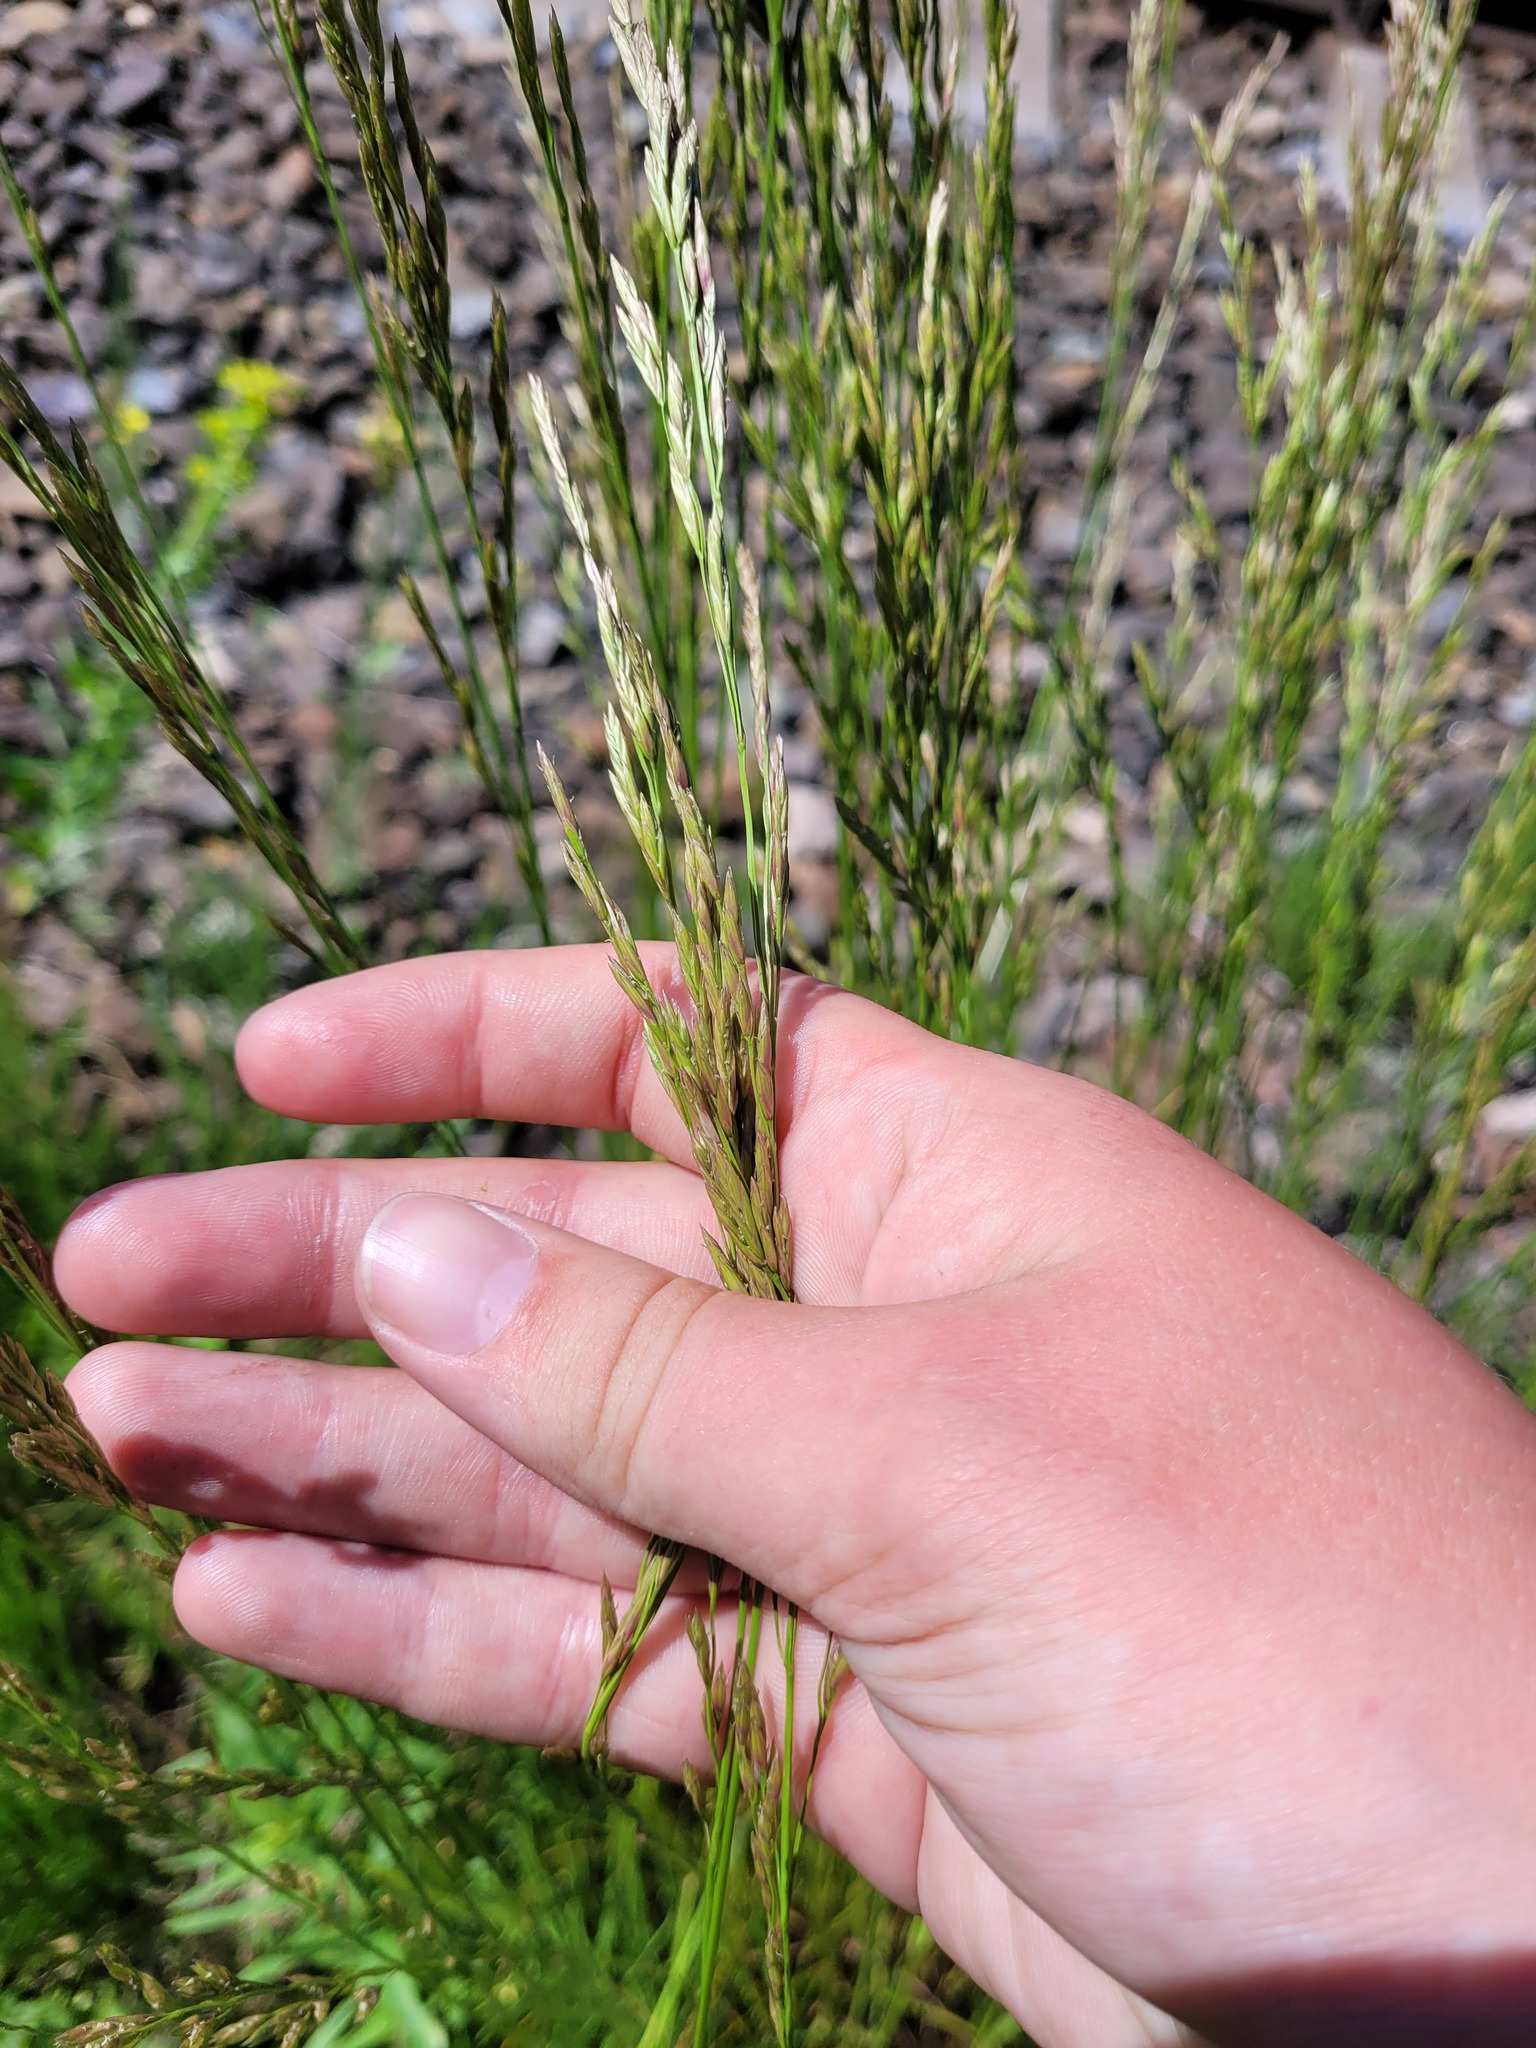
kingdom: Plantae
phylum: Tracheophyta
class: Liliopsida
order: Poales
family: Poaceae
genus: Lolium
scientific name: Lolium pratense
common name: Dover grass
